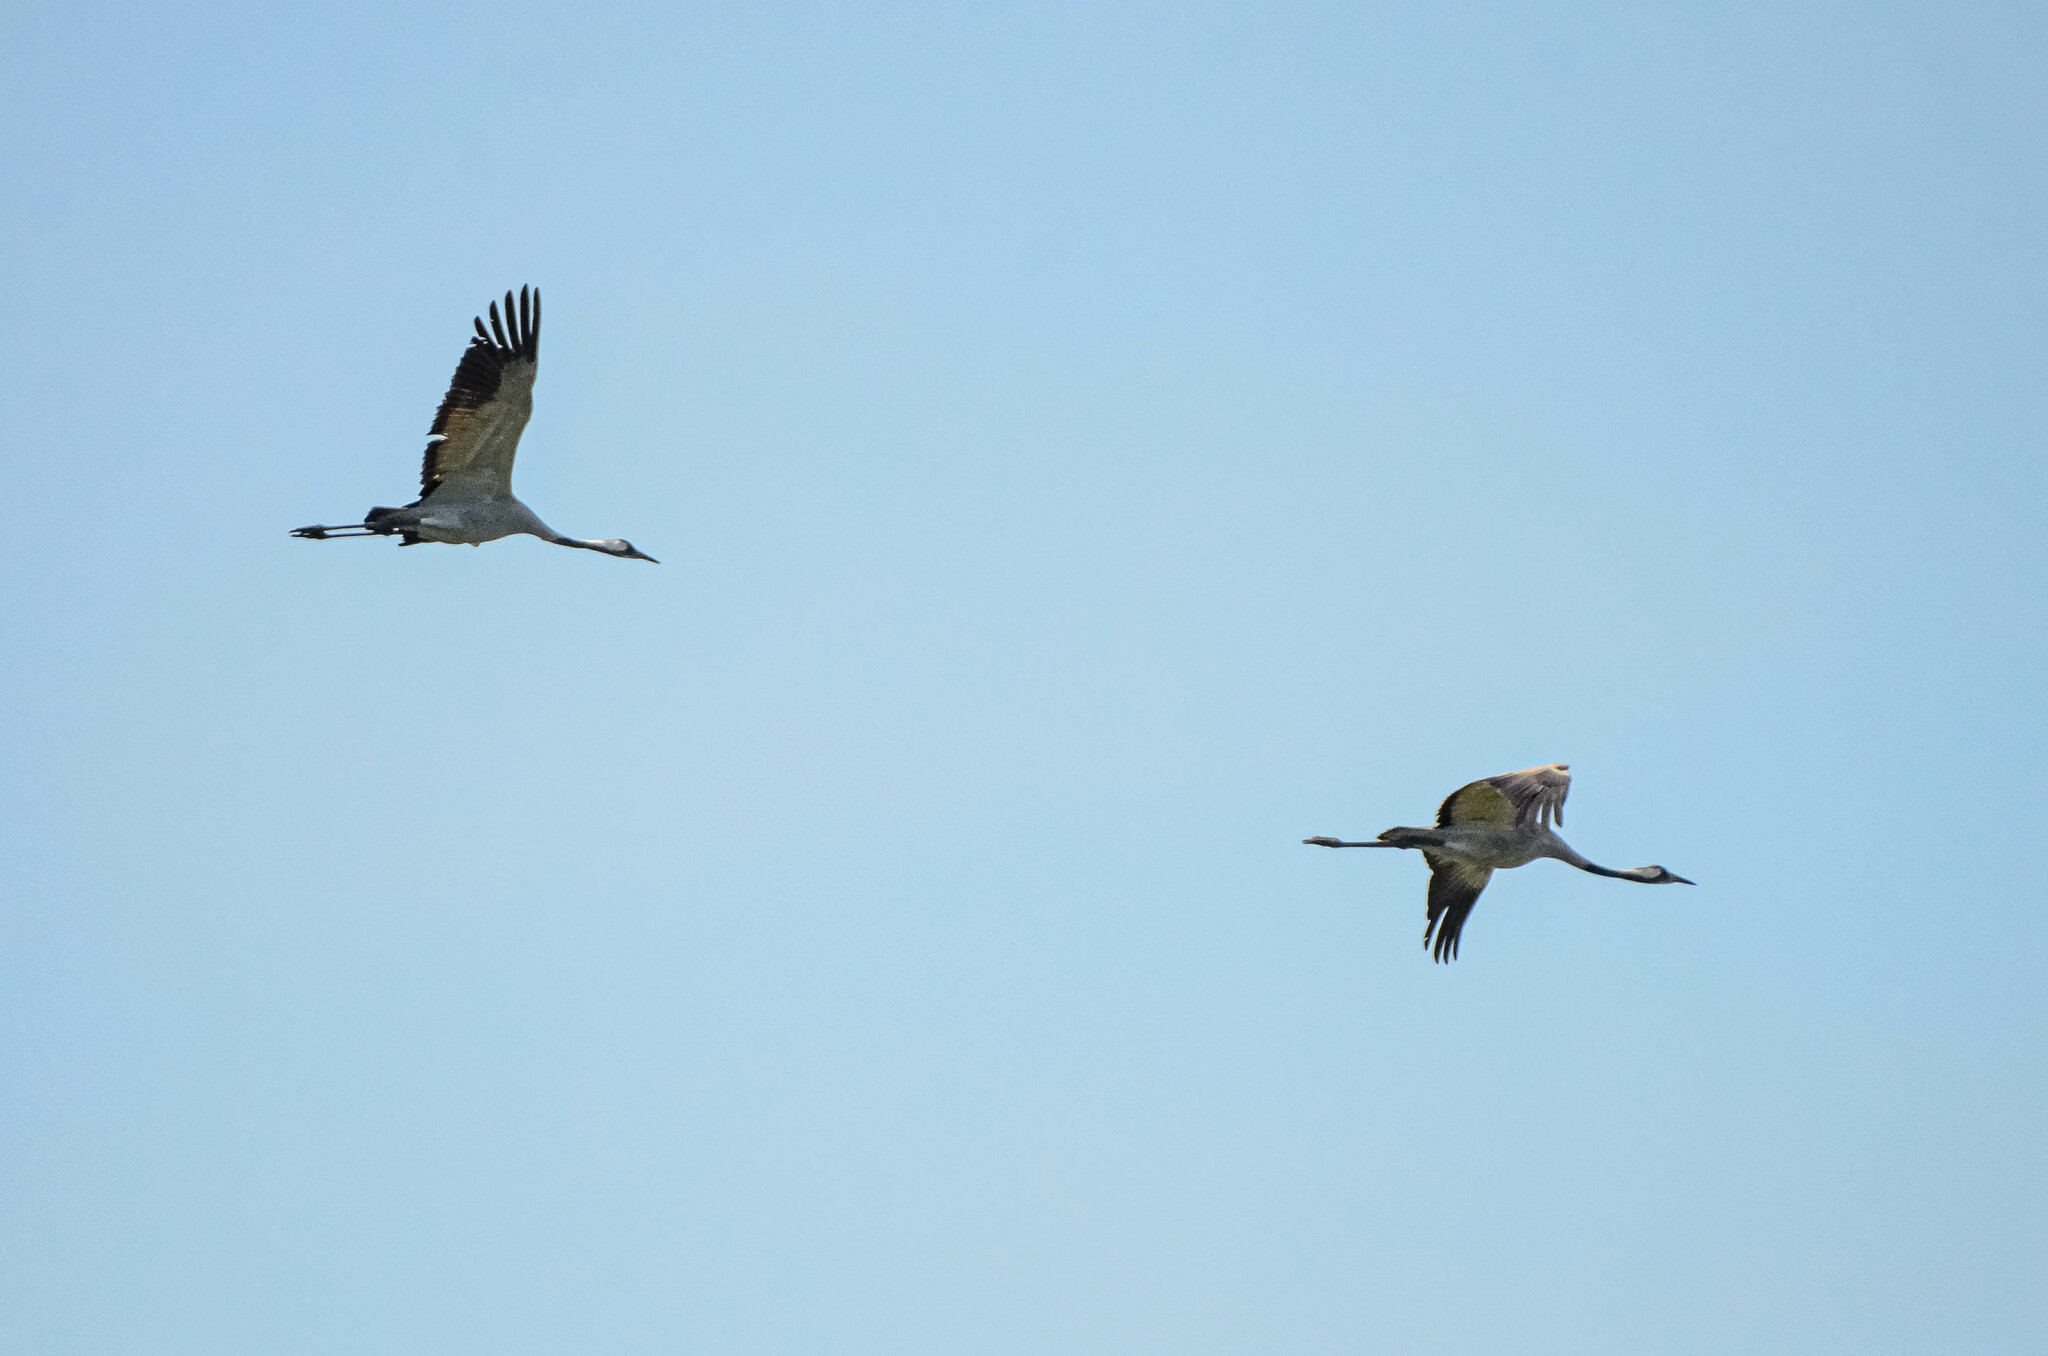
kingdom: Animalia
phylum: Chordata
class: Aves
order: Gruiformes
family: Gruidae
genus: Grus
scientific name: Grus grus
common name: Common crane
